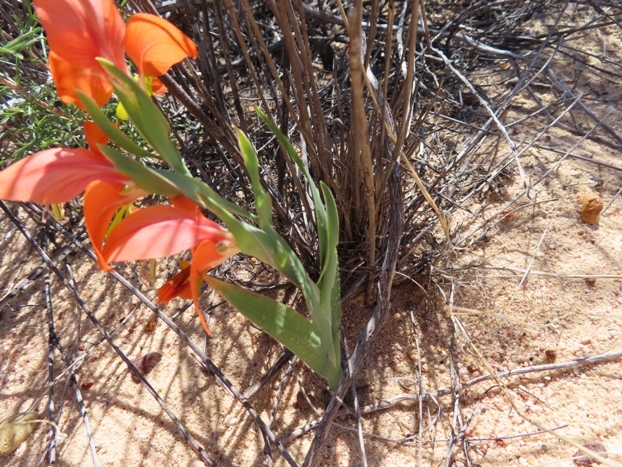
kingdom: Plantae
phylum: Tracheophyta
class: Liliopsida
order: Asparagales
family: Iridaceae
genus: Gladiolus
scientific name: Gladiolus speciosus
